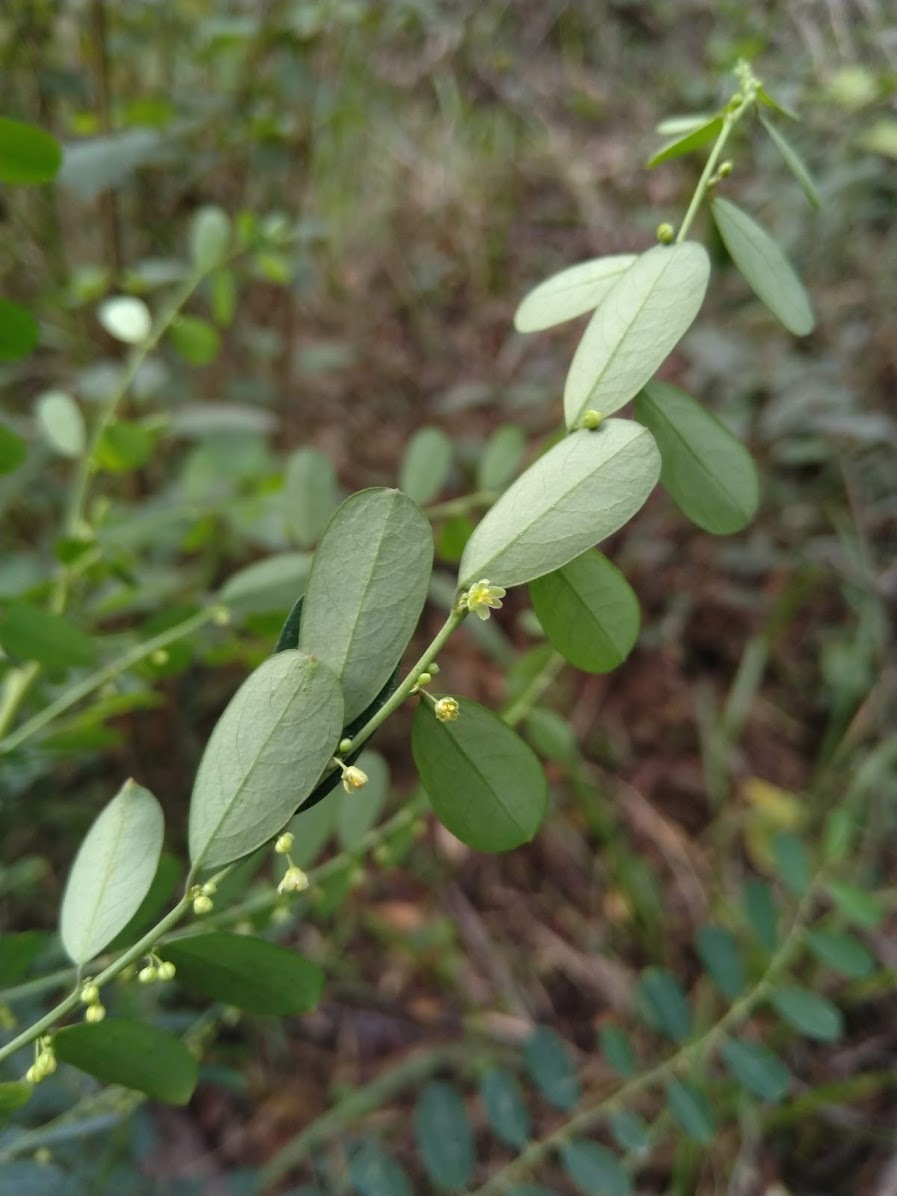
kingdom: Plantae
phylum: Tracheophyta
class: Magnoliopsida
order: Malpighiales
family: Phyllanthaceae
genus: Phyllanthus
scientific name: Phyllanthus gunnii
